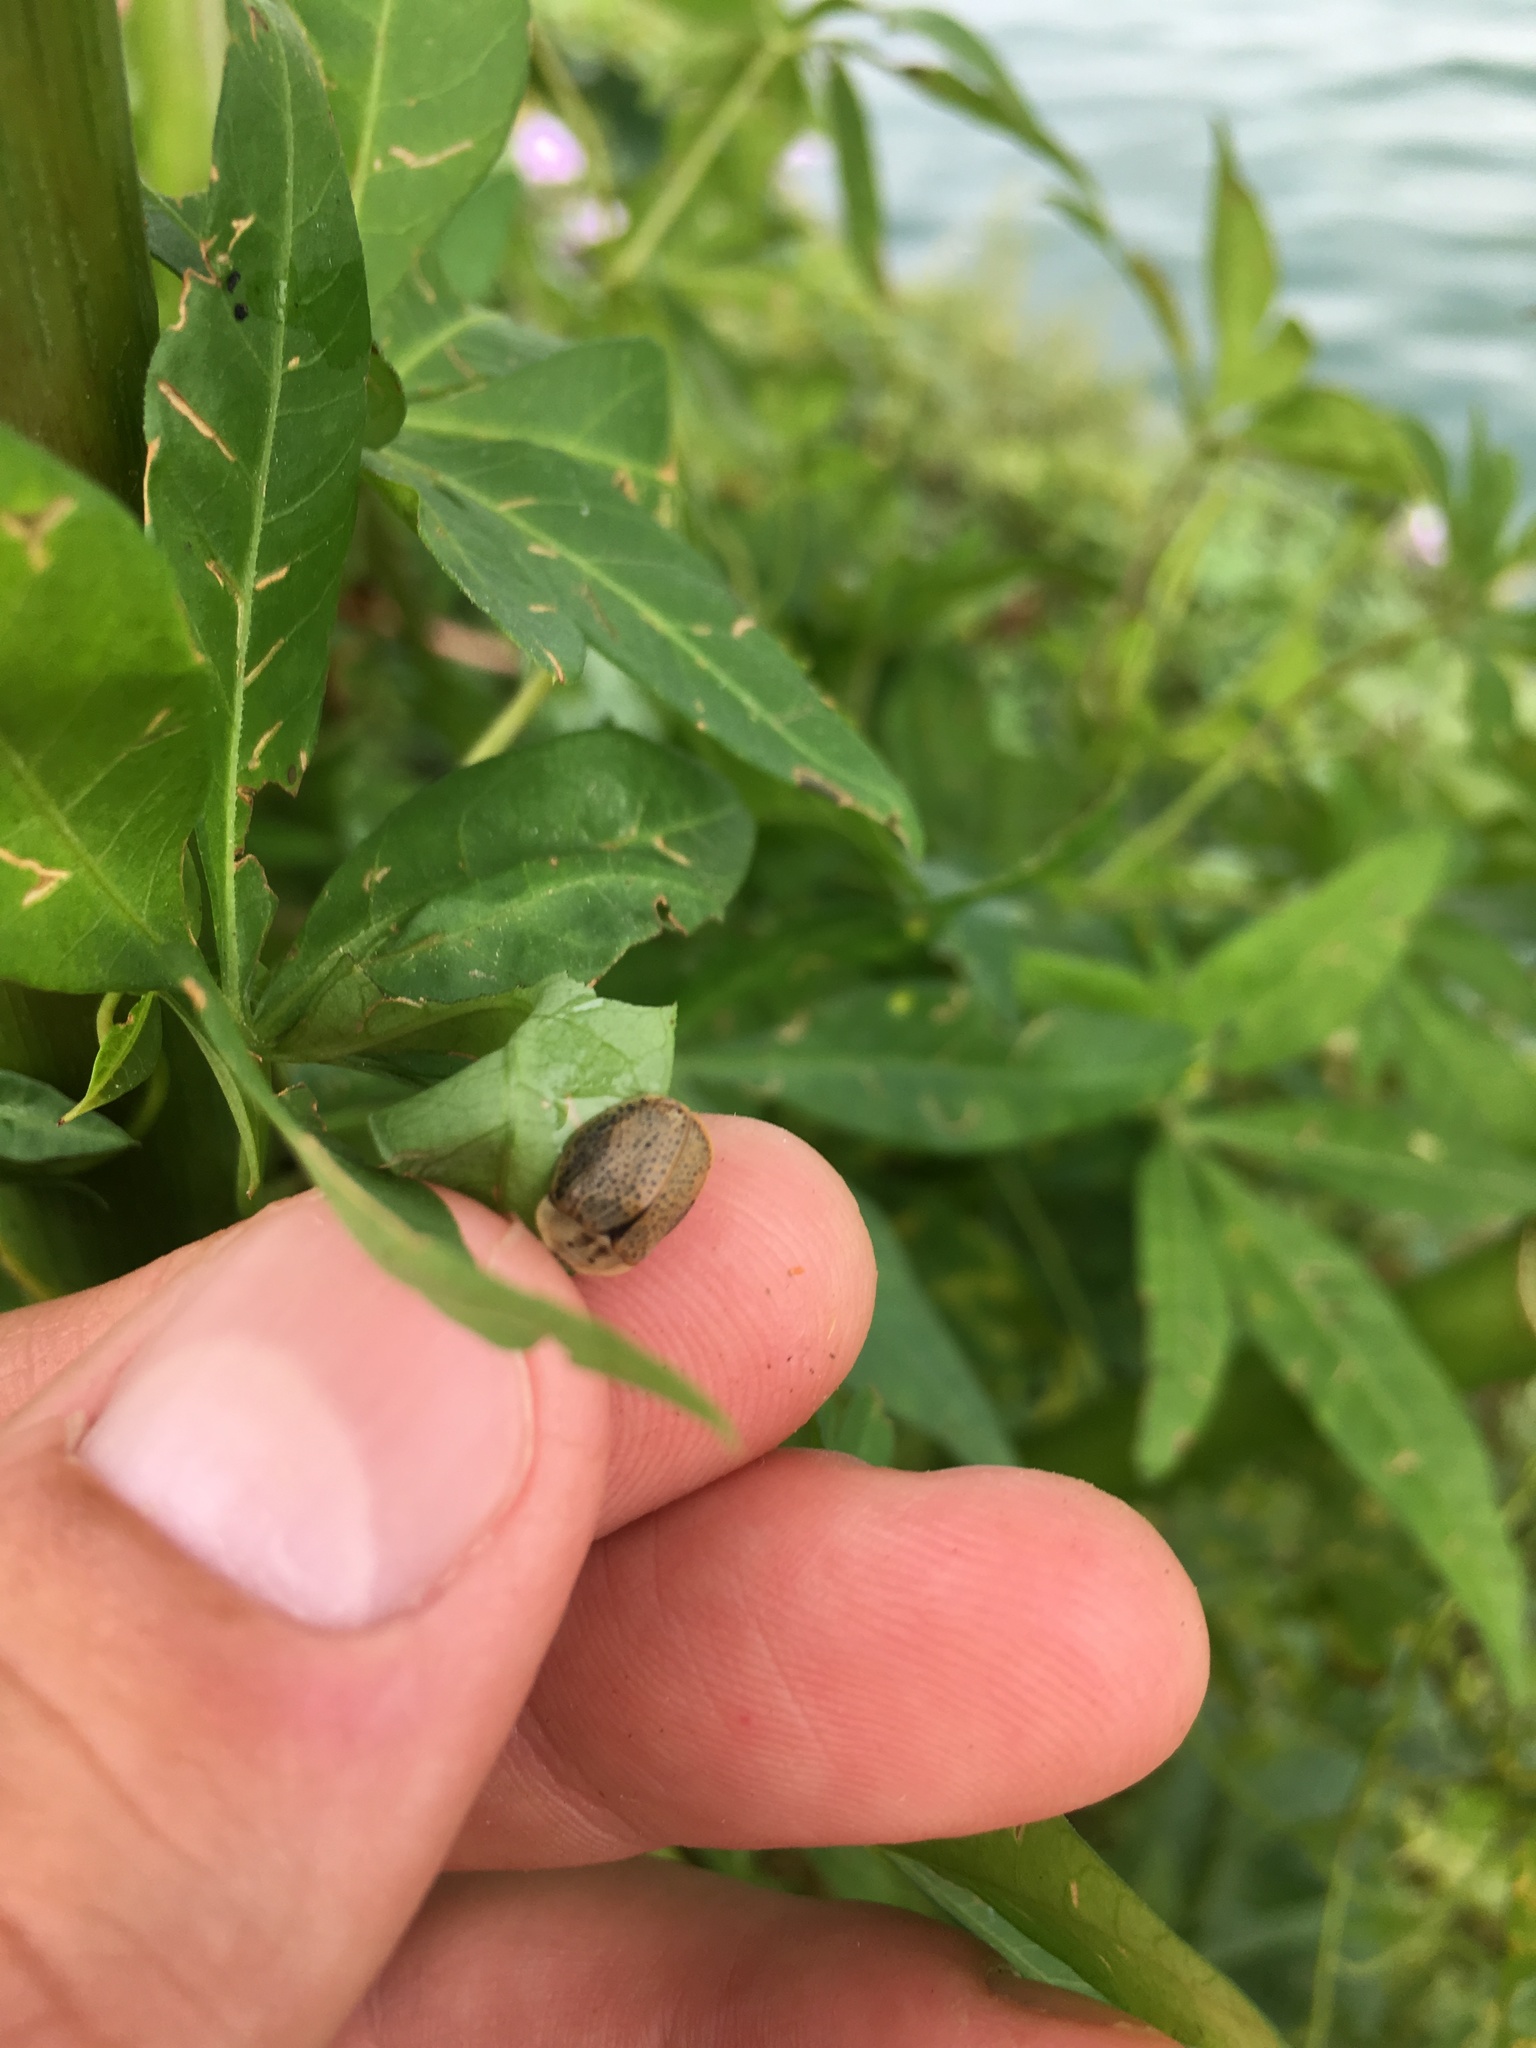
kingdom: Animalia
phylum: Arthropoda
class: Insecta
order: Coleoptera
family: Chrysomelidae
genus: Chelymorpha
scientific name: Chelymorpha indigesta
